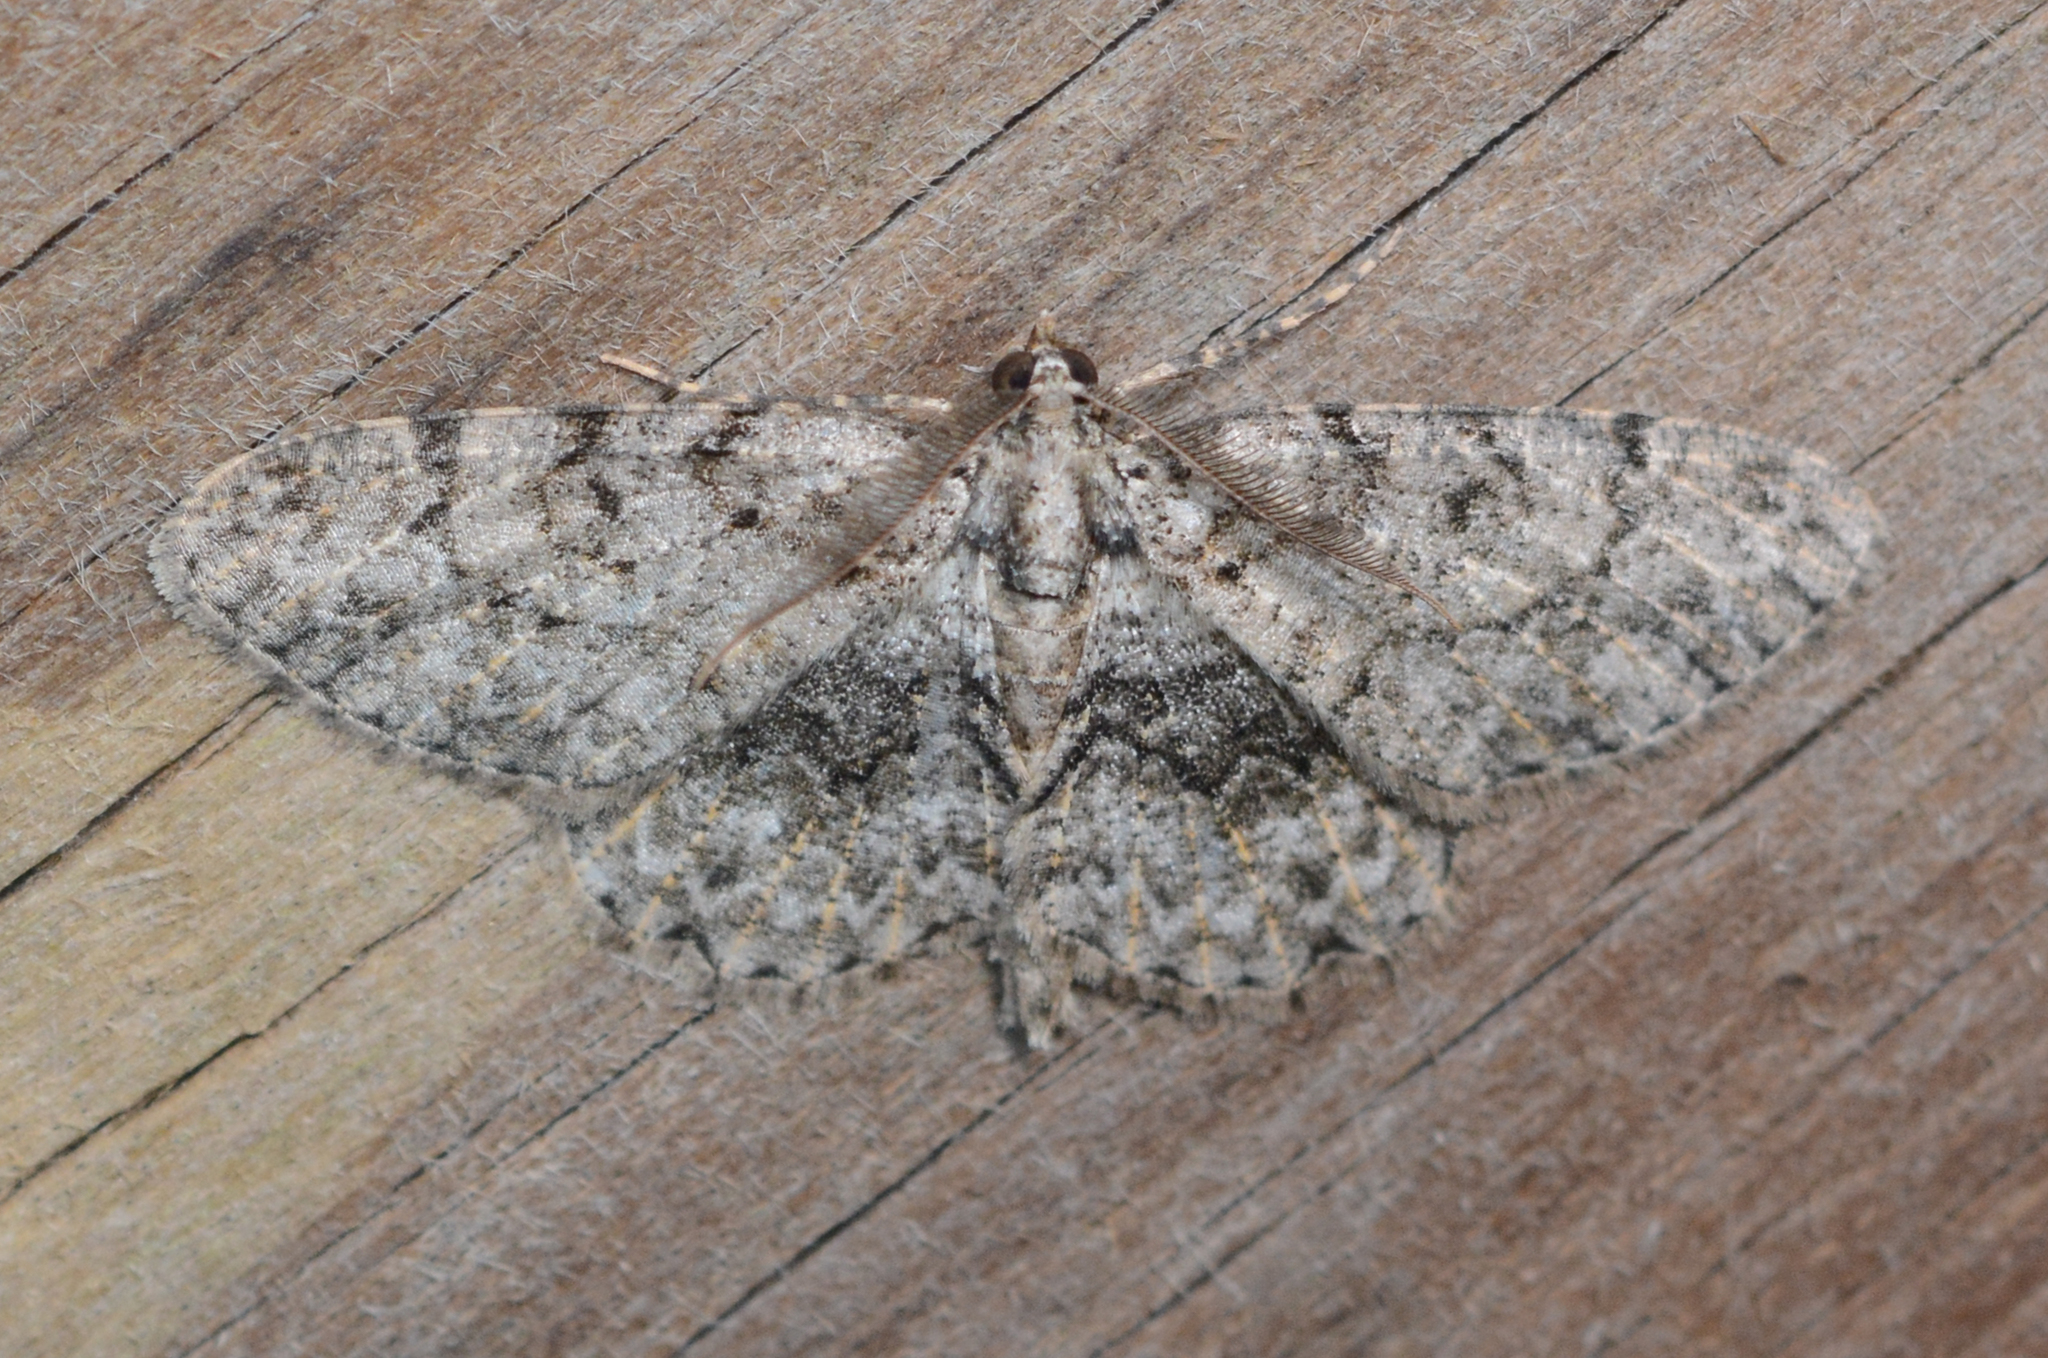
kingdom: Animalia
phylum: Arthropoda
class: Insecta
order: Lepidoptera
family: Geometridae
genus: Protoboarmia
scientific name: Protoboarmia porcelaria
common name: Porcelain gray
